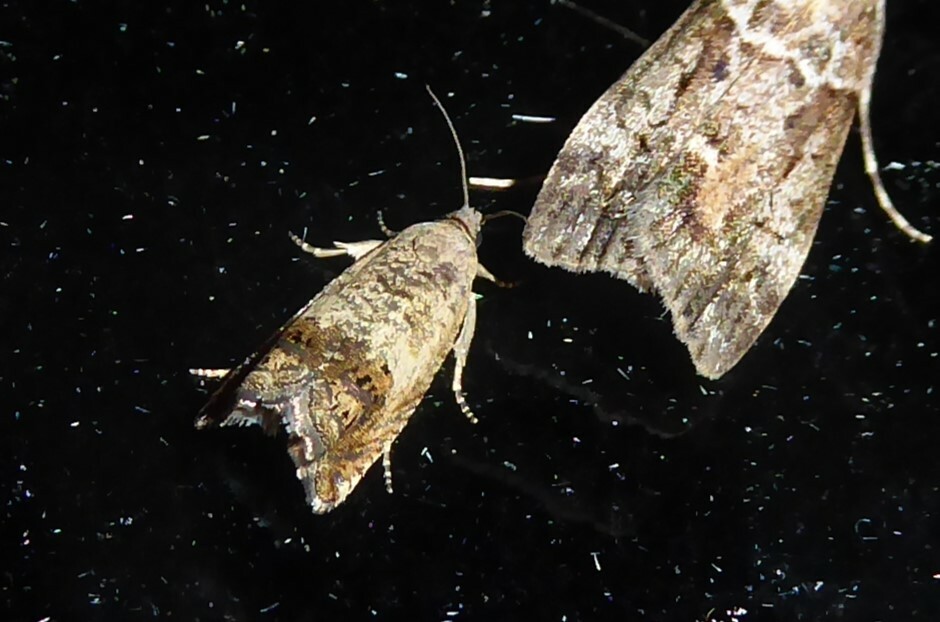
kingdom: Animalia
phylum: Arthropoda
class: Insecta
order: Lepidoptera
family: Tortricidae
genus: Cydia
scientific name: Cydia succedana
